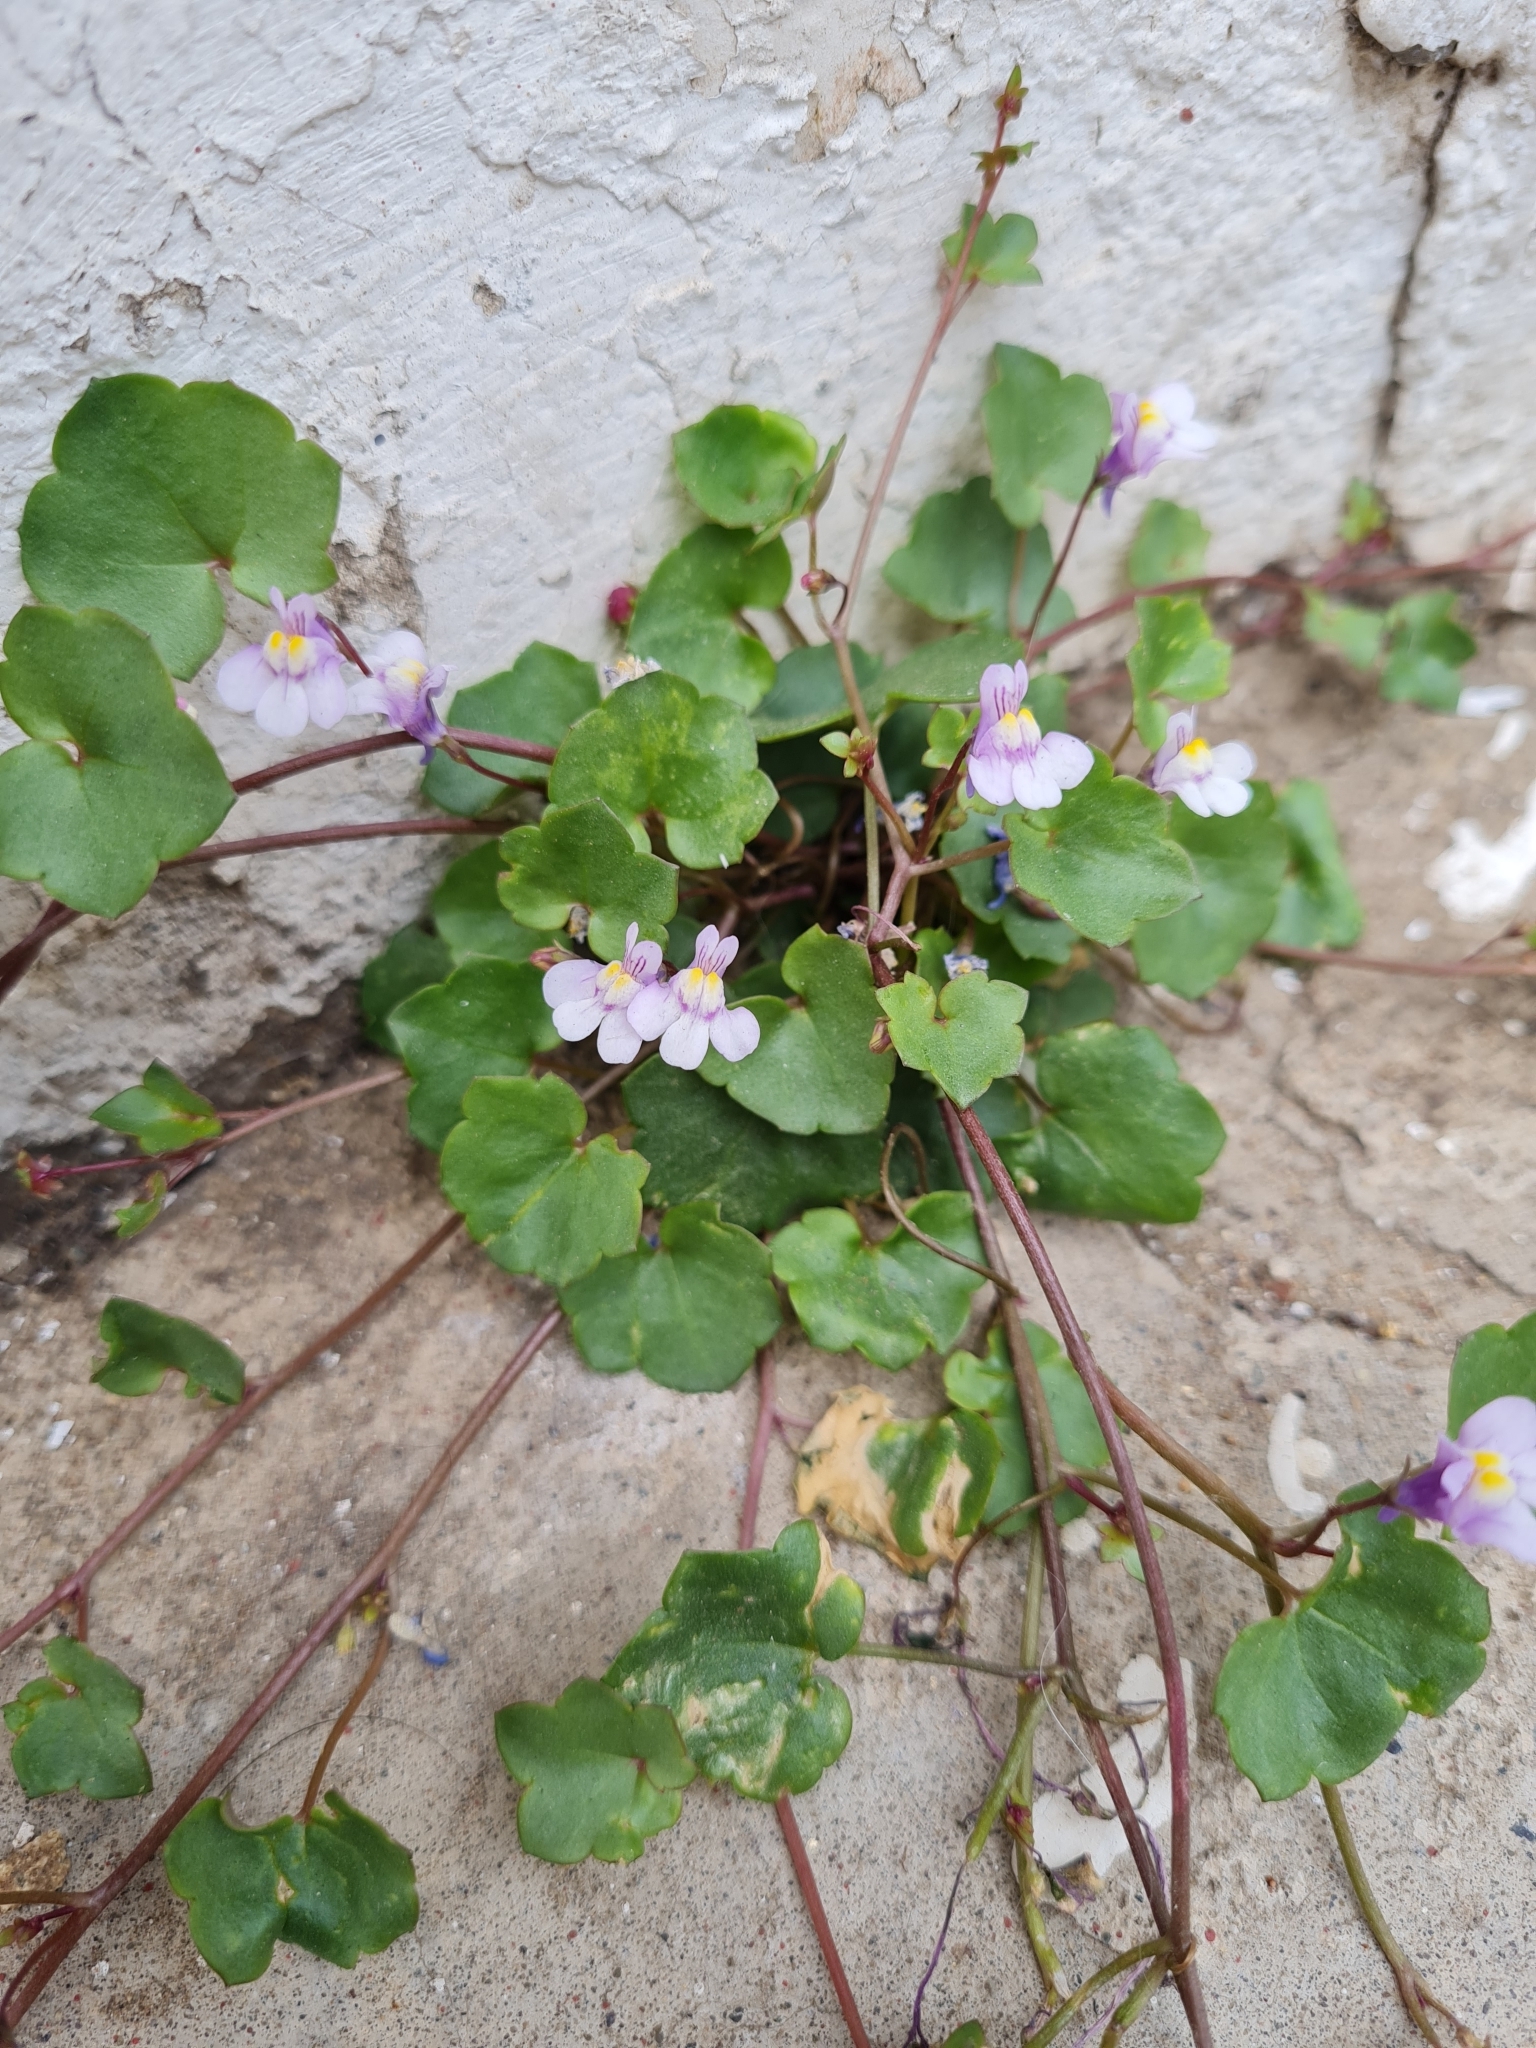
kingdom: Plantae
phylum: Tracheophyta
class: Magnoliopsida
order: Lamiales
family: Plantaginaceae
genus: Cymbalaria
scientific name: Cymbalaria muralis
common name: Ivy-leaved toadflax
